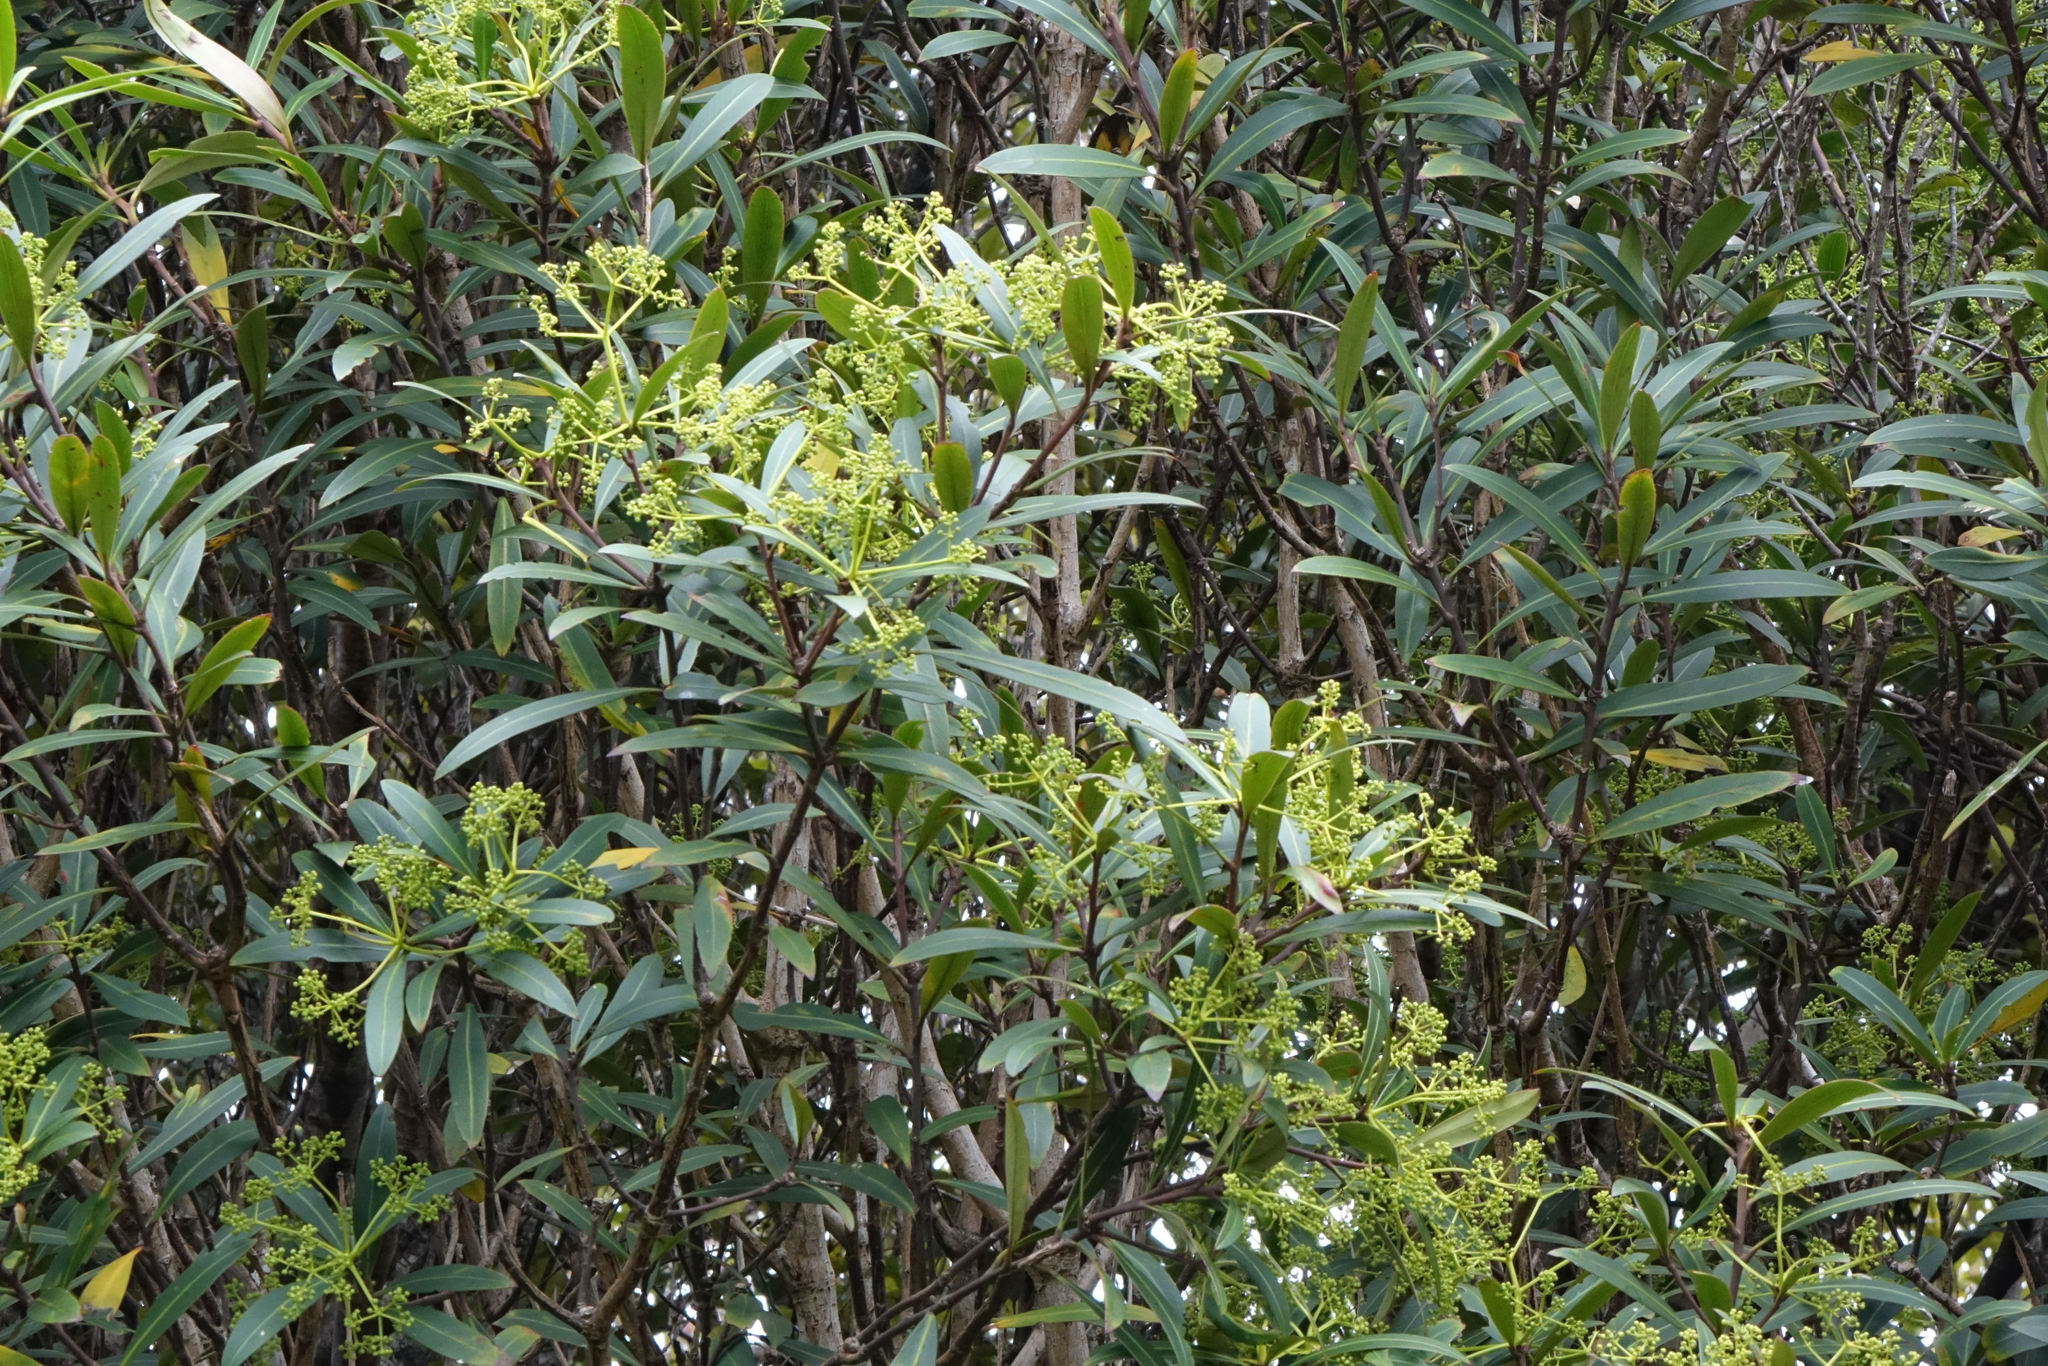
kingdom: Plantae
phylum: Tracheophyta
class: Magnoliopsida
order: Apiales
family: Araliaceae
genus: Pseudopanax
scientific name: Pseudopanax crassifolius
